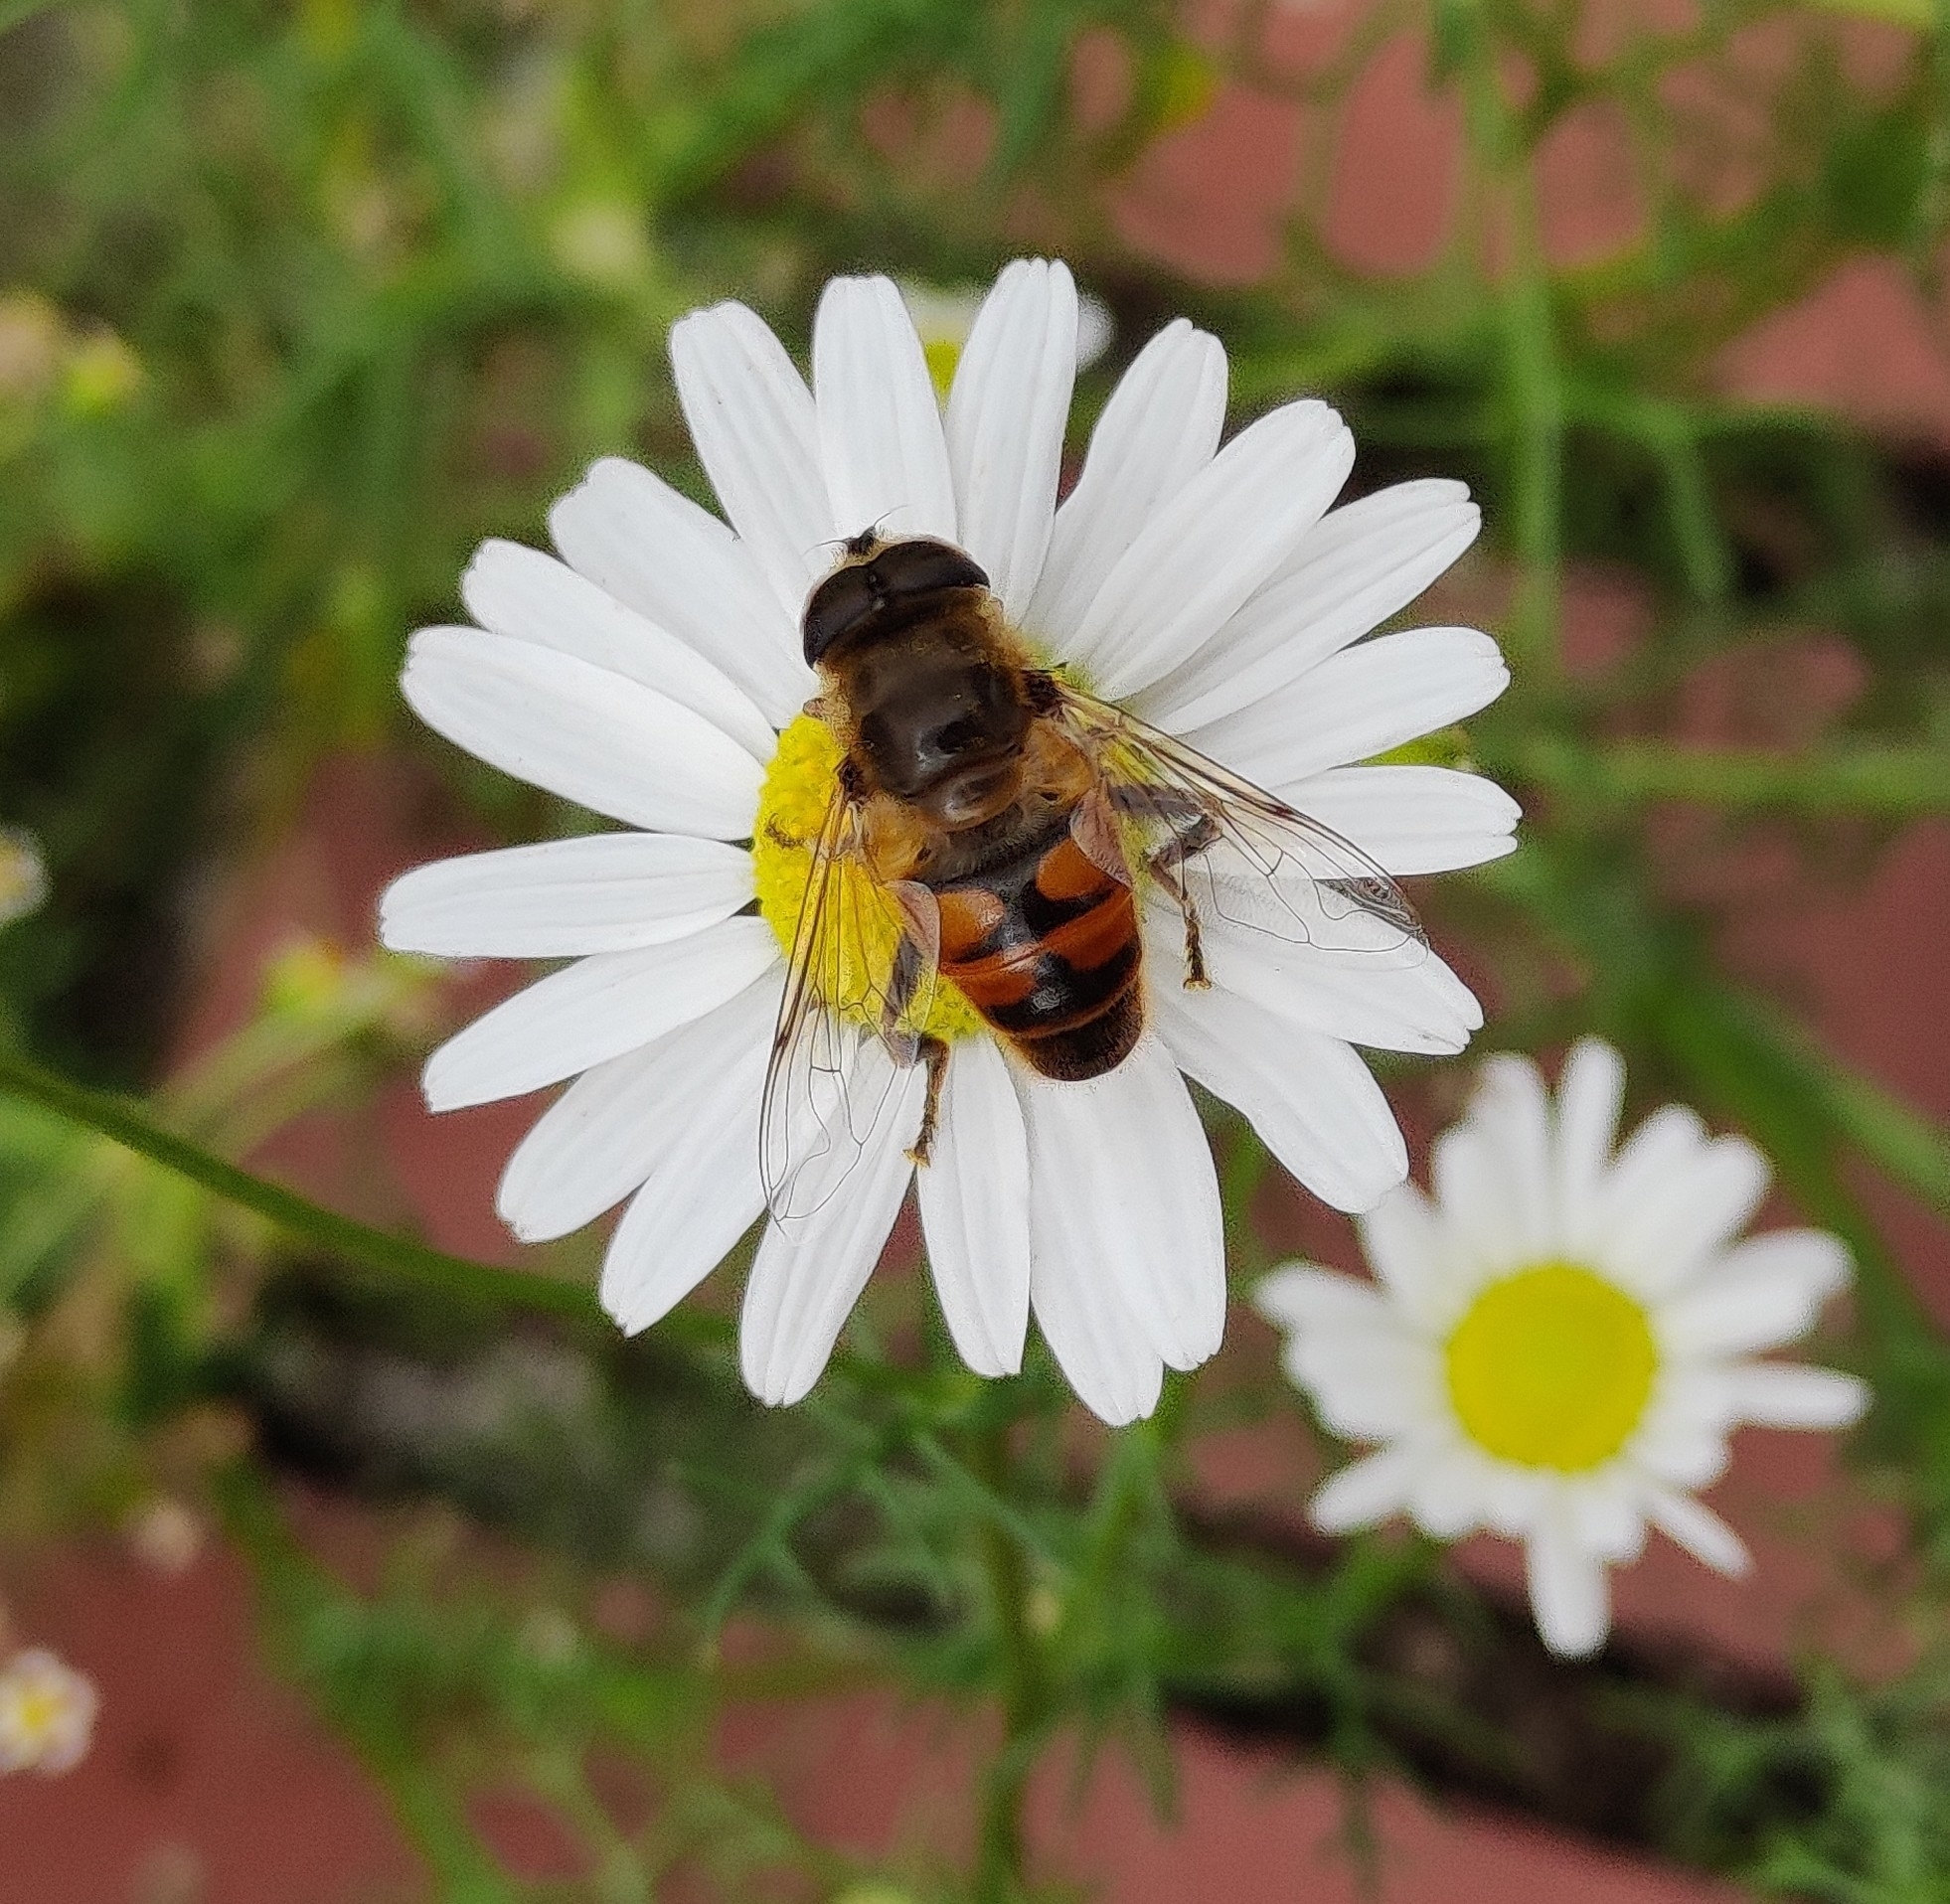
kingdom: Animalia
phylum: Arthropoda
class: Insecta
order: Diptera
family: Syrphidae
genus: Eristalis
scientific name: Eristalis tenax
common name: Drone fly
